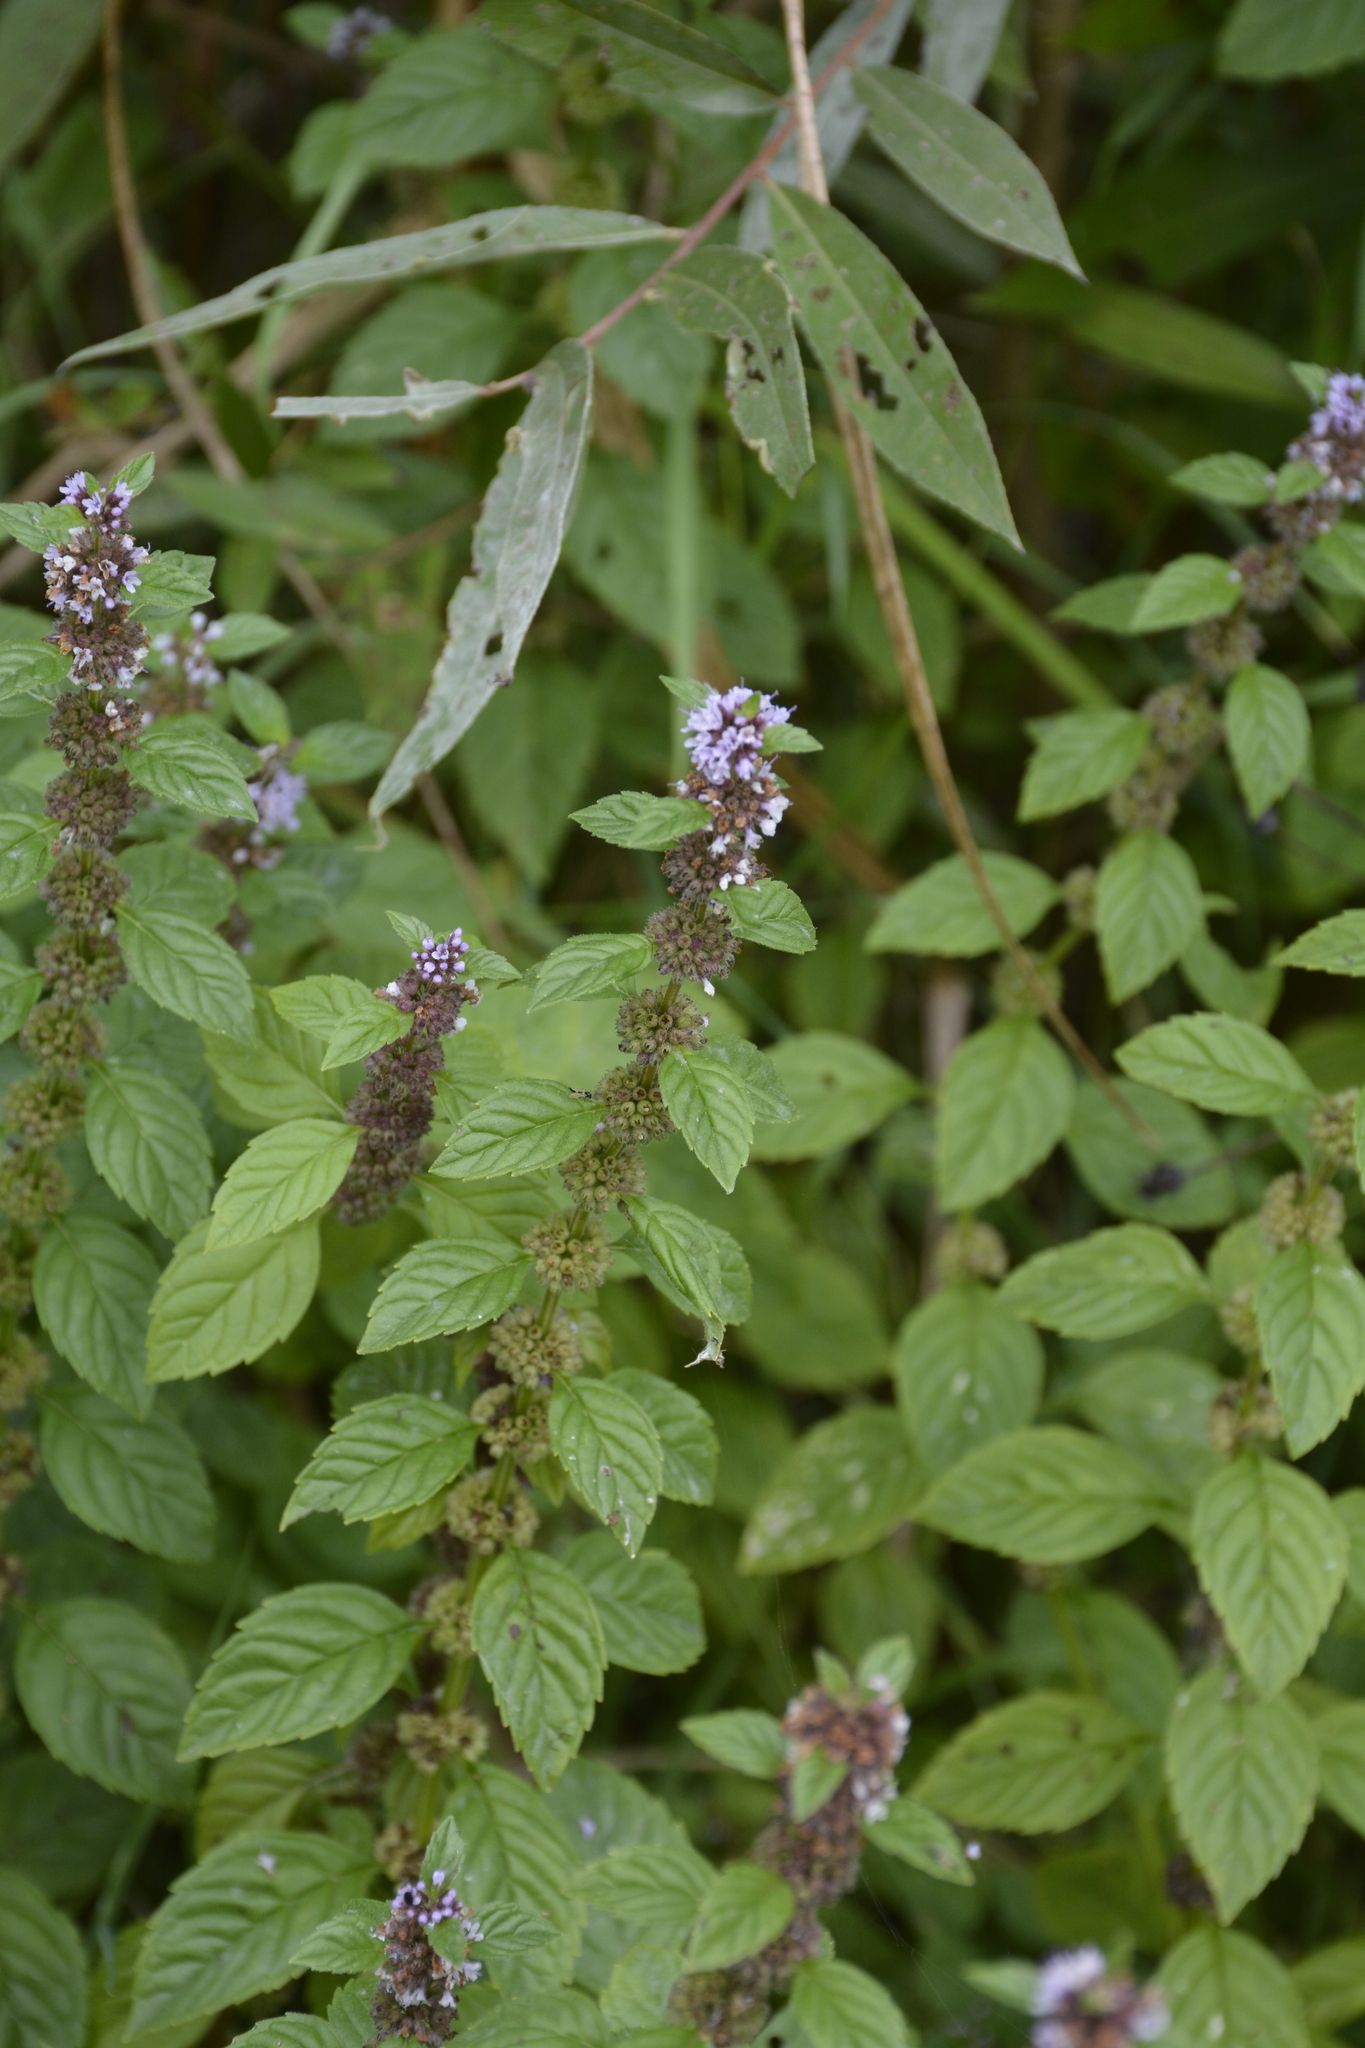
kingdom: Plantae
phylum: Tracheophyta
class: Magnoliopsida
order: Lamiales
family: Lamiaceae
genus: Mentha
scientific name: Mentha arvensis
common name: Corn mint
